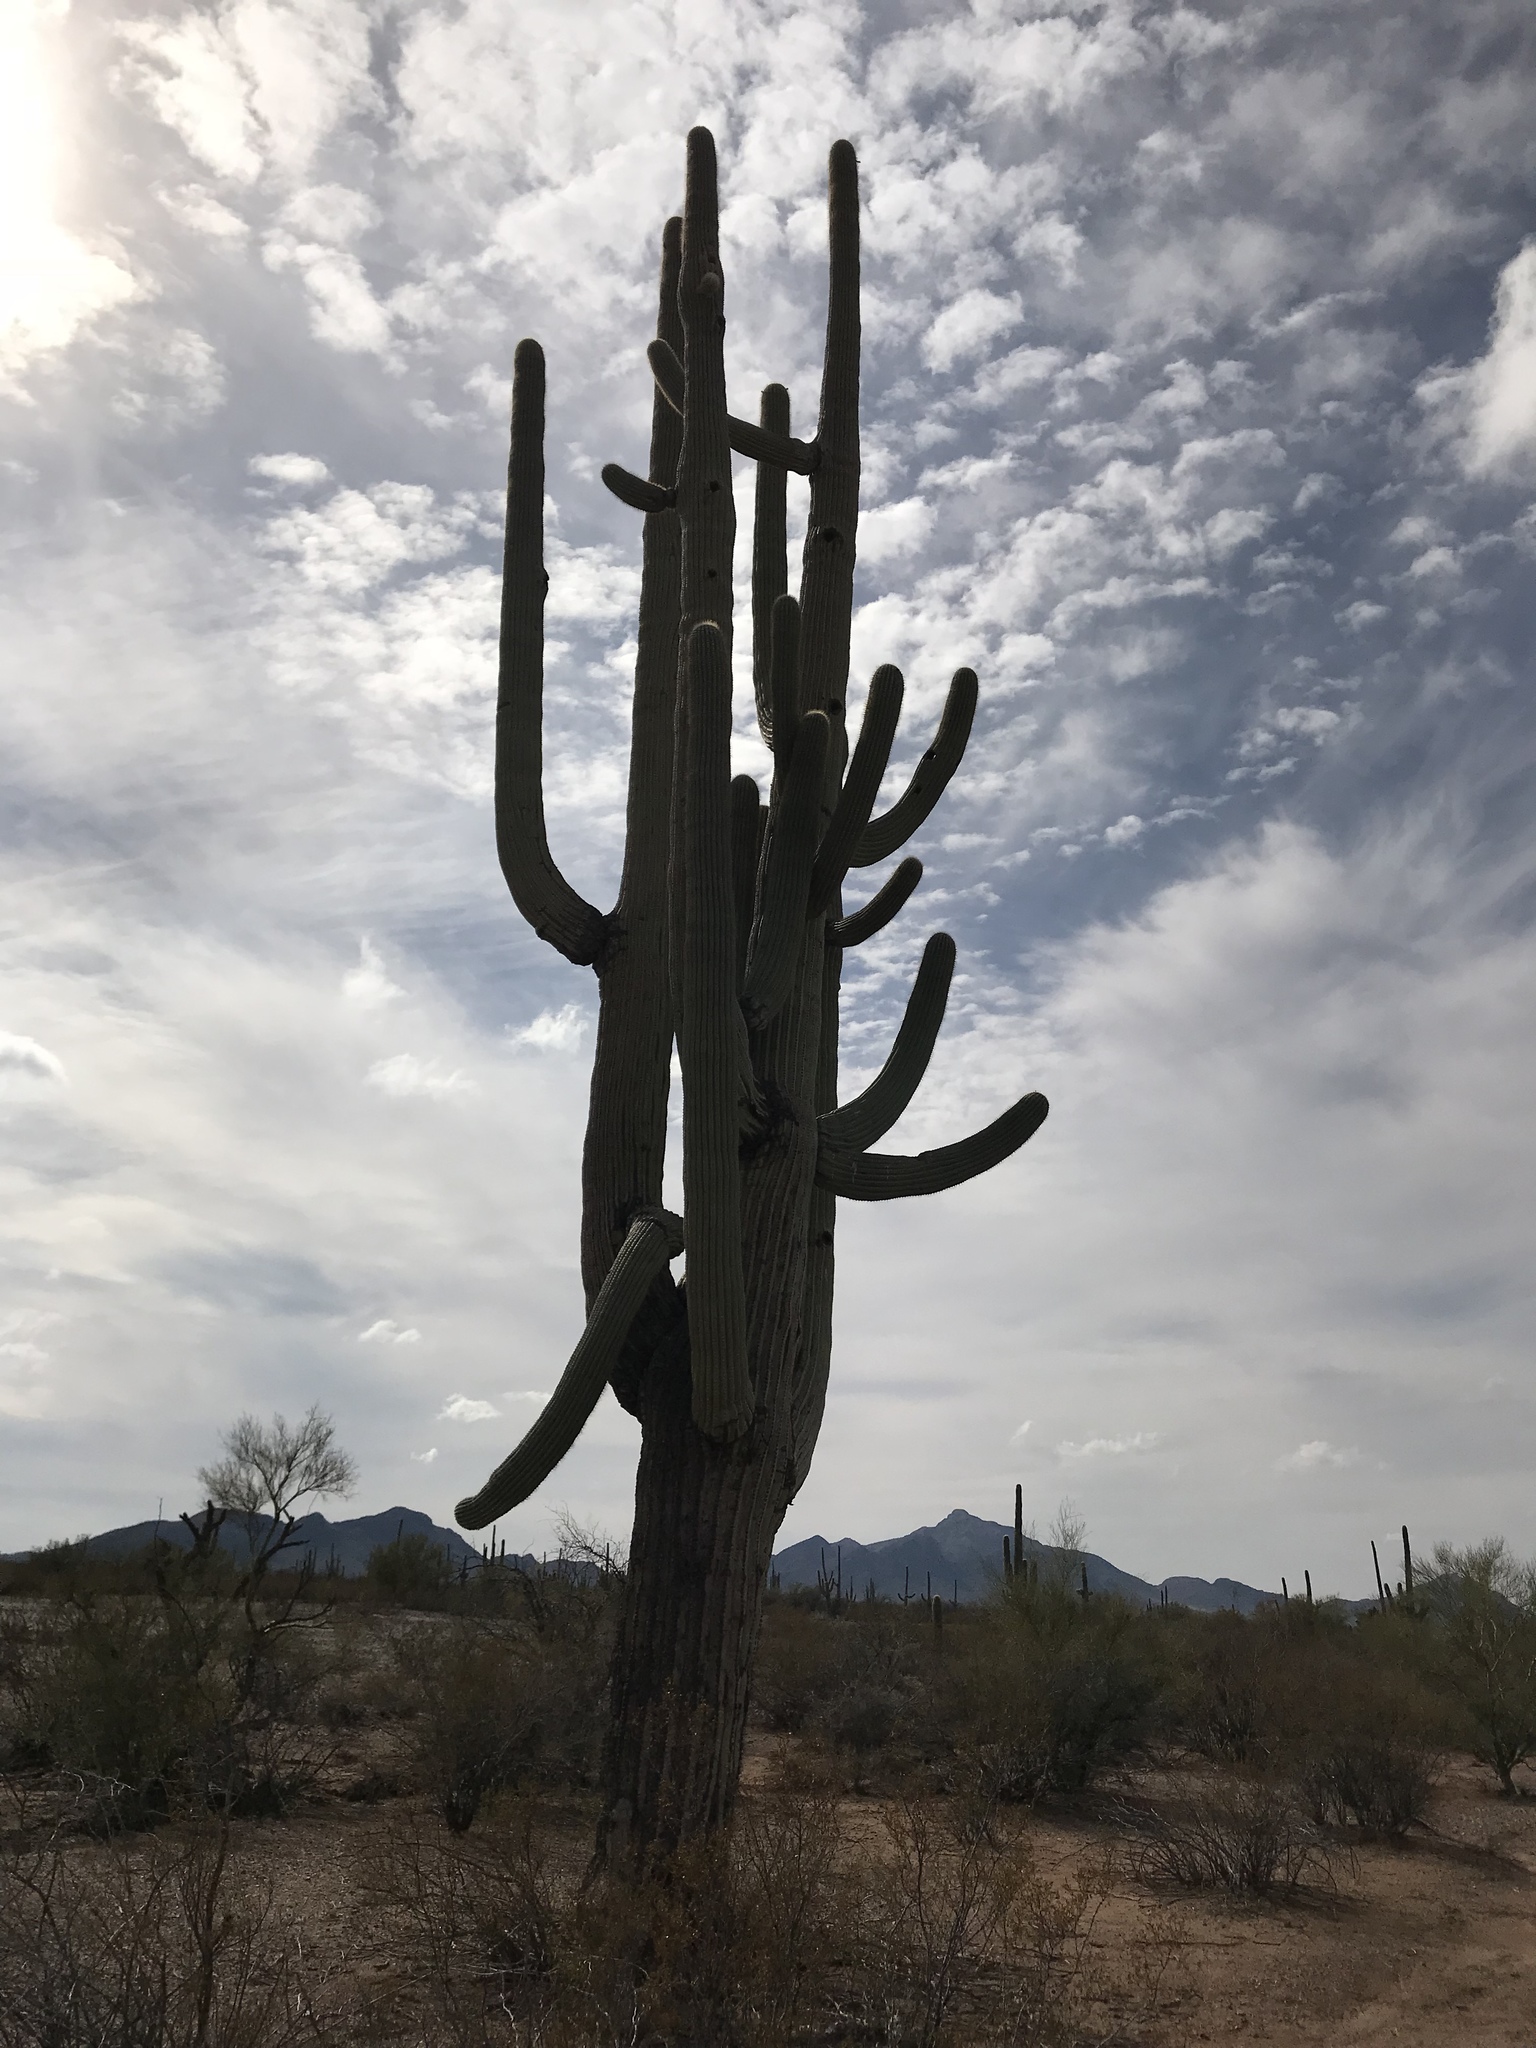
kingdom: Plantae
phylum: Tracheophyta
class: Magnoliopsida
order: Caryophyllales
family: Cactaceae
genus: Carnegiea
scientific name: Carnegiea gigantea
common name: Saguaro
